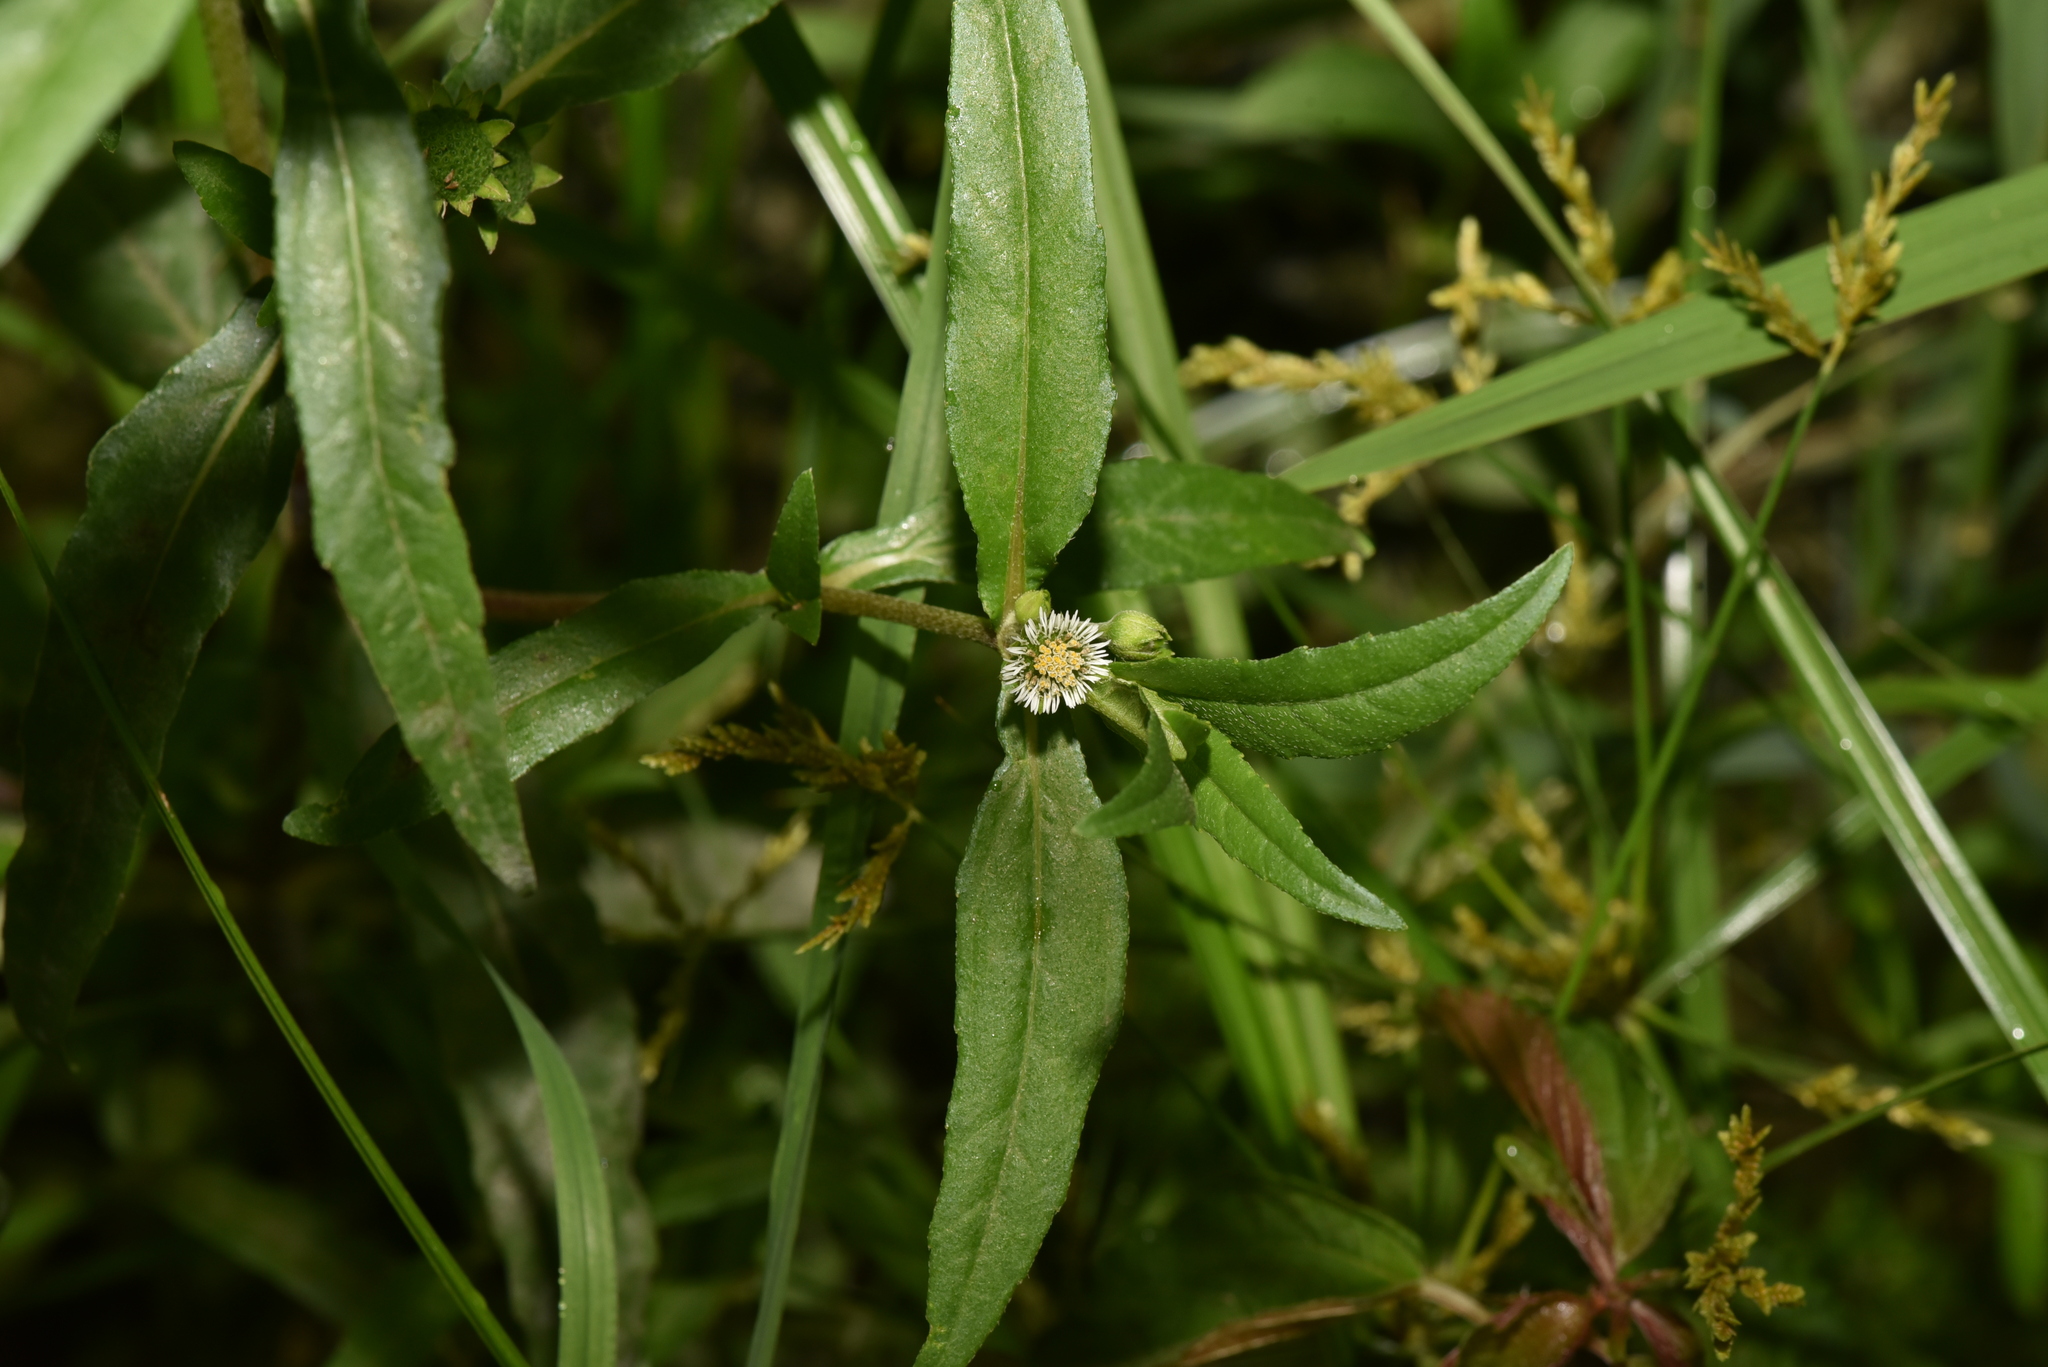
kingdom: Plantae
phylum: Tracheophyta
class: Magnoliopsida
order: Asterales
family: Asteraceae
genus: Eclipta
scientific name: Eclipta prostrata
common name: False daisy
